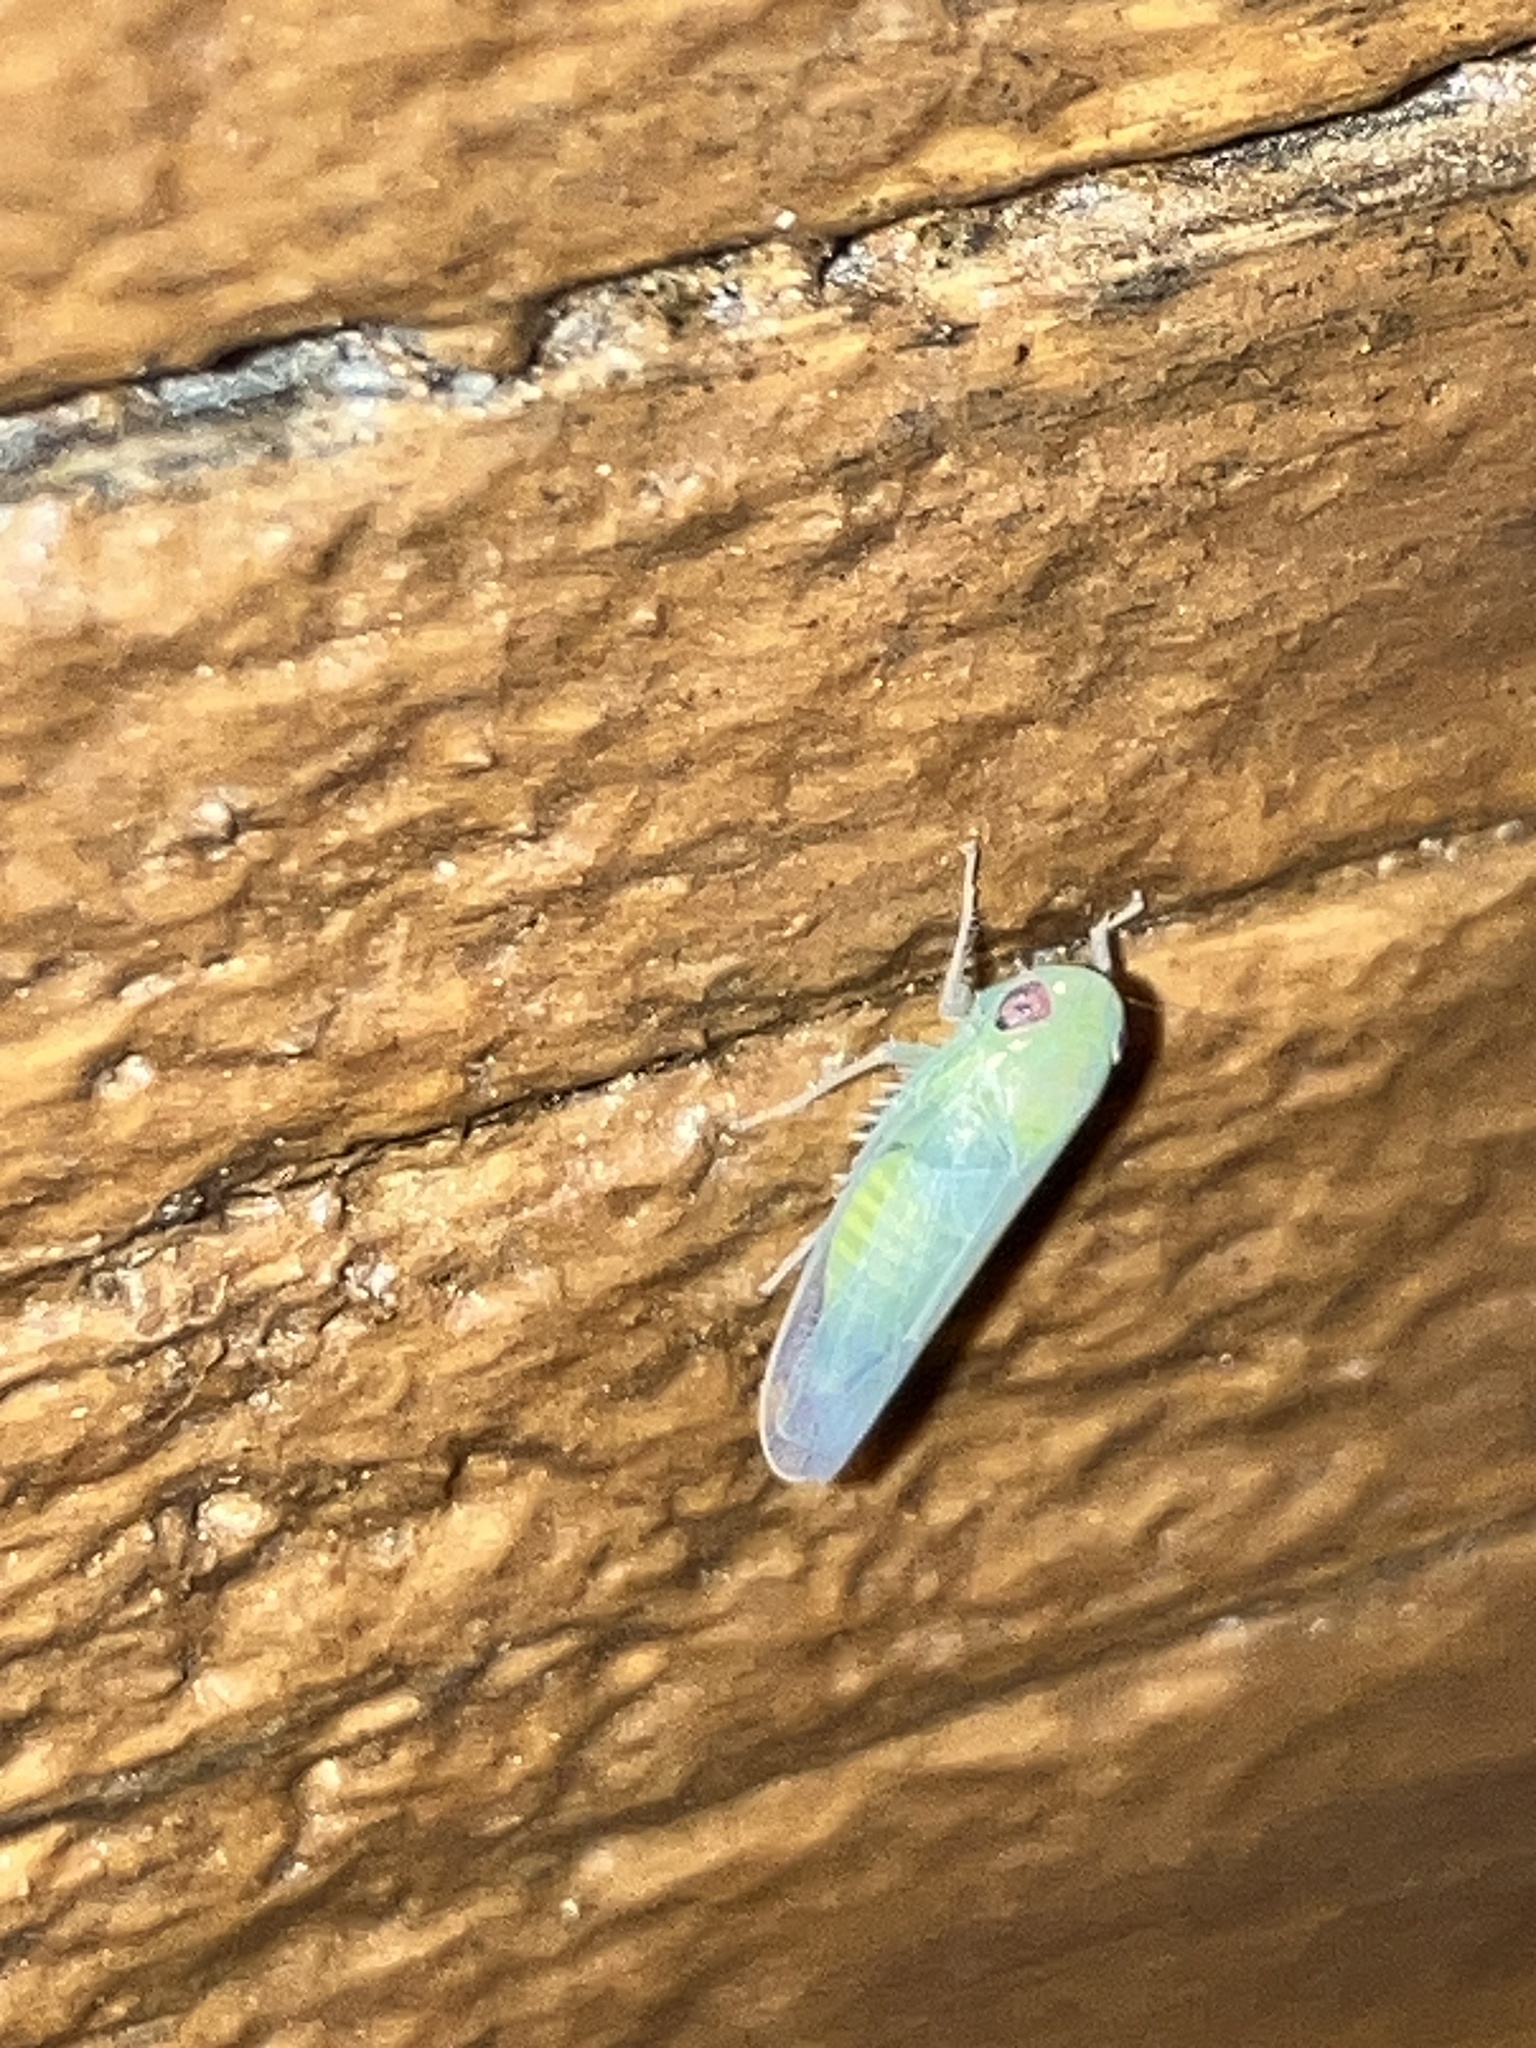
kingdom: Animalia
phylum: Arthropoda
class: Insecta
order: Hemiptera
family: Cicadellidae
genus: Chlorotettix
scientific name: Chlorotettix
